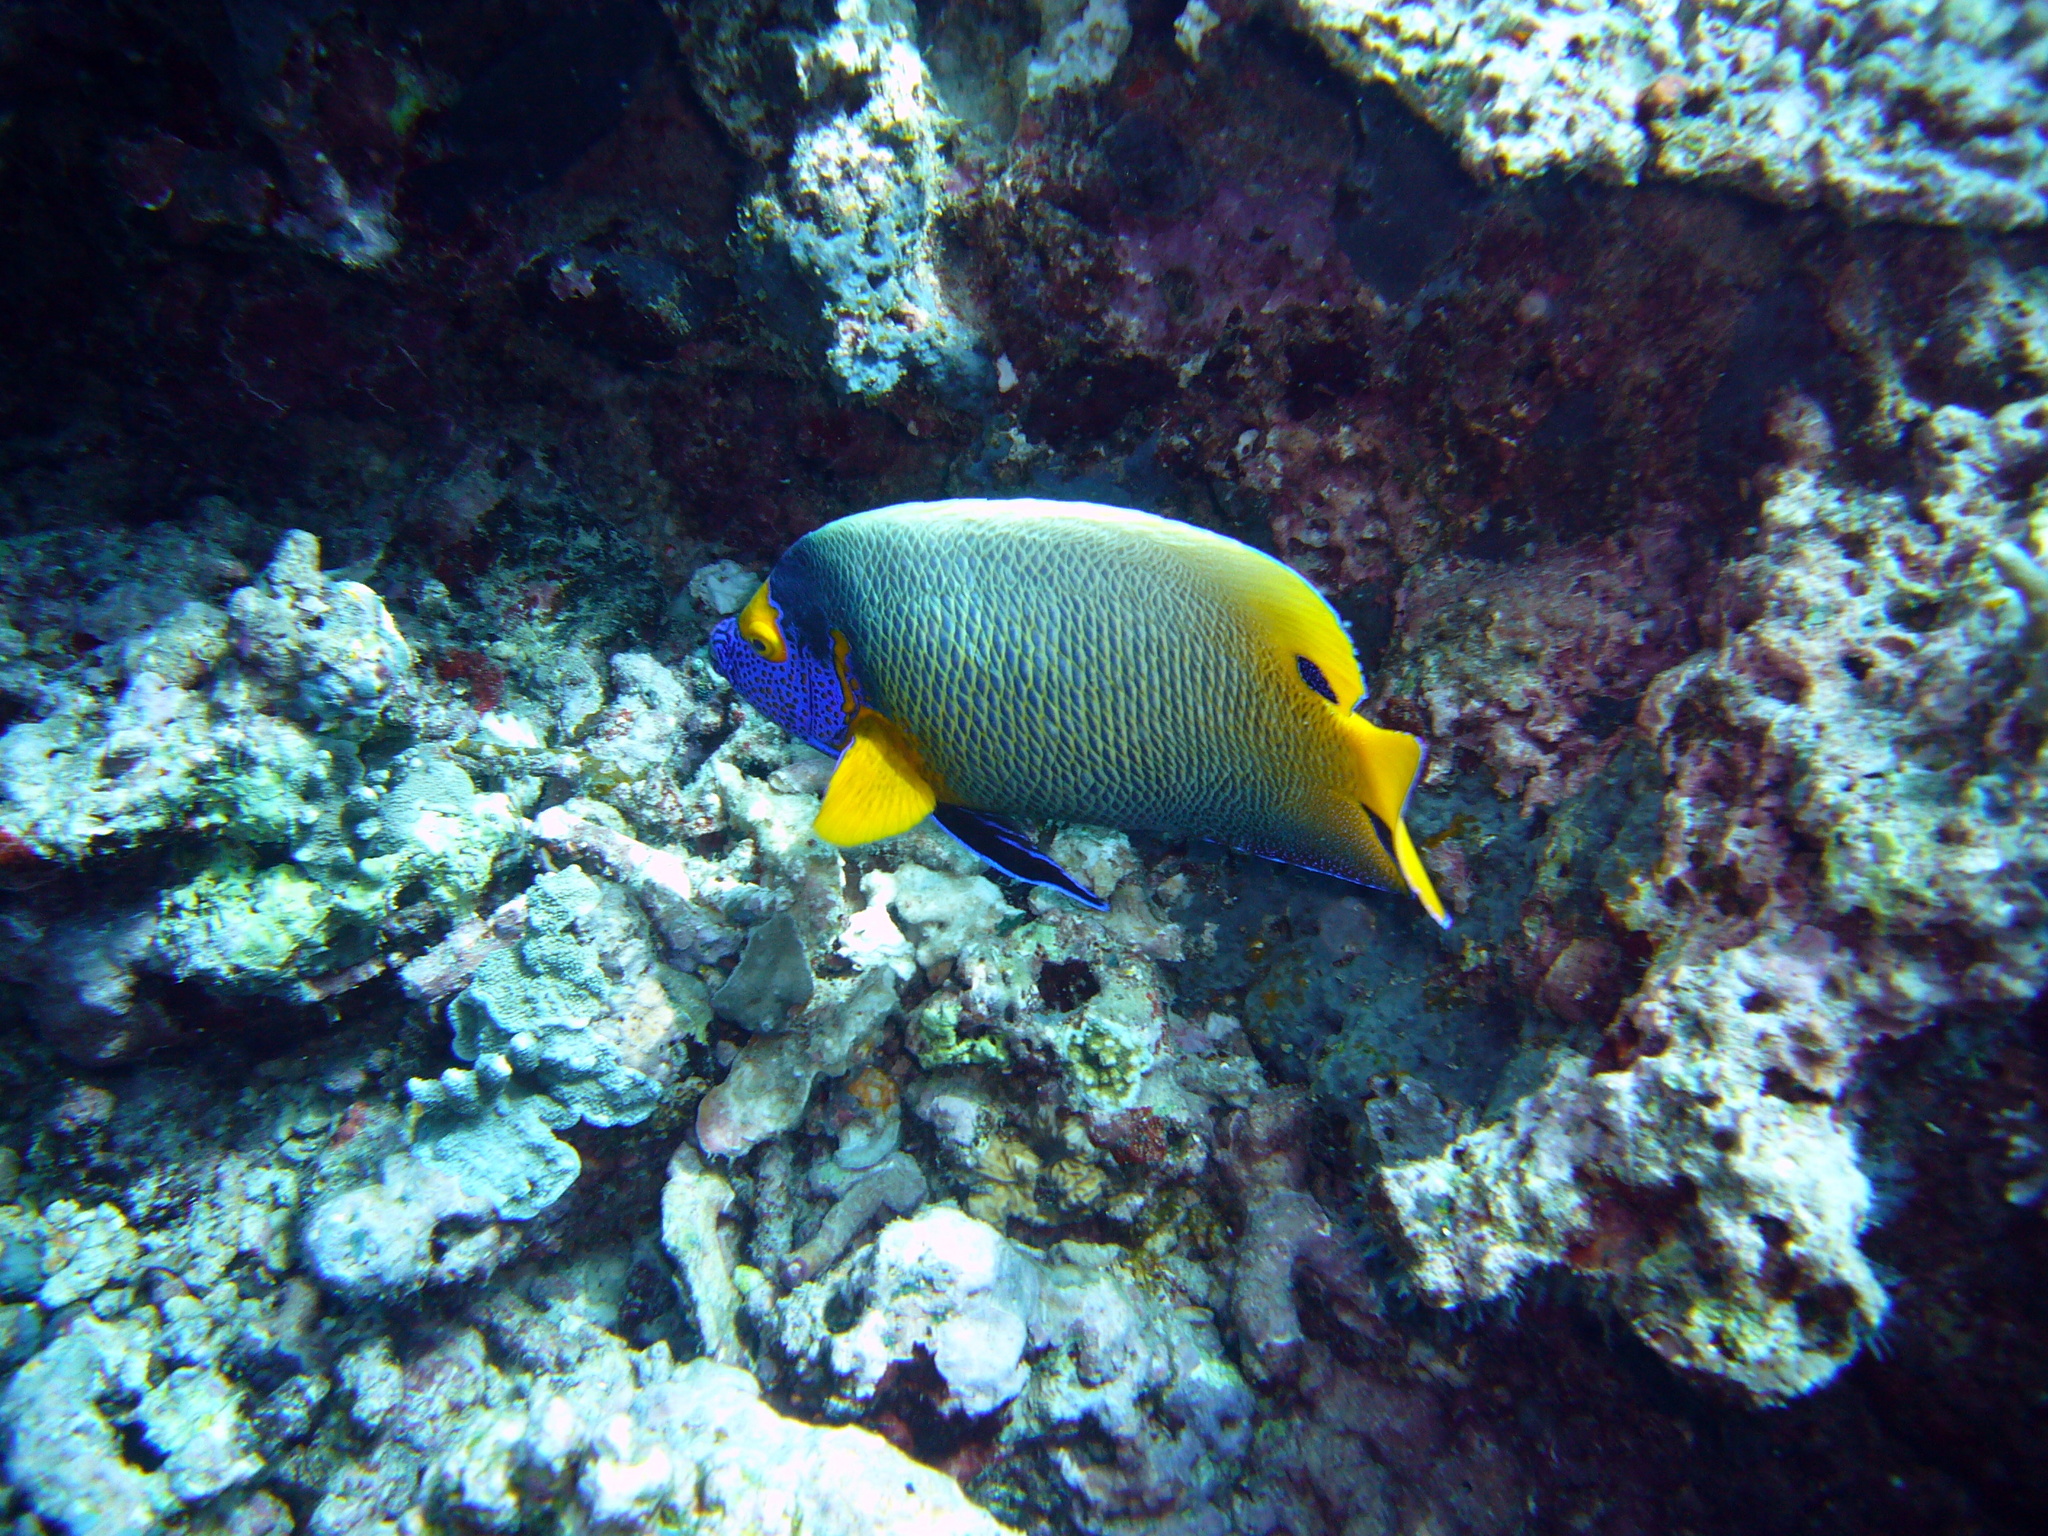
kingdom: Animalia
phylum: Chordata
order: Perciformes
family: Pomacanthidae
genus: Pomacanthus
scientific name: Pomacanthus xanthometopon
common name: Yellow-faced angelfish
